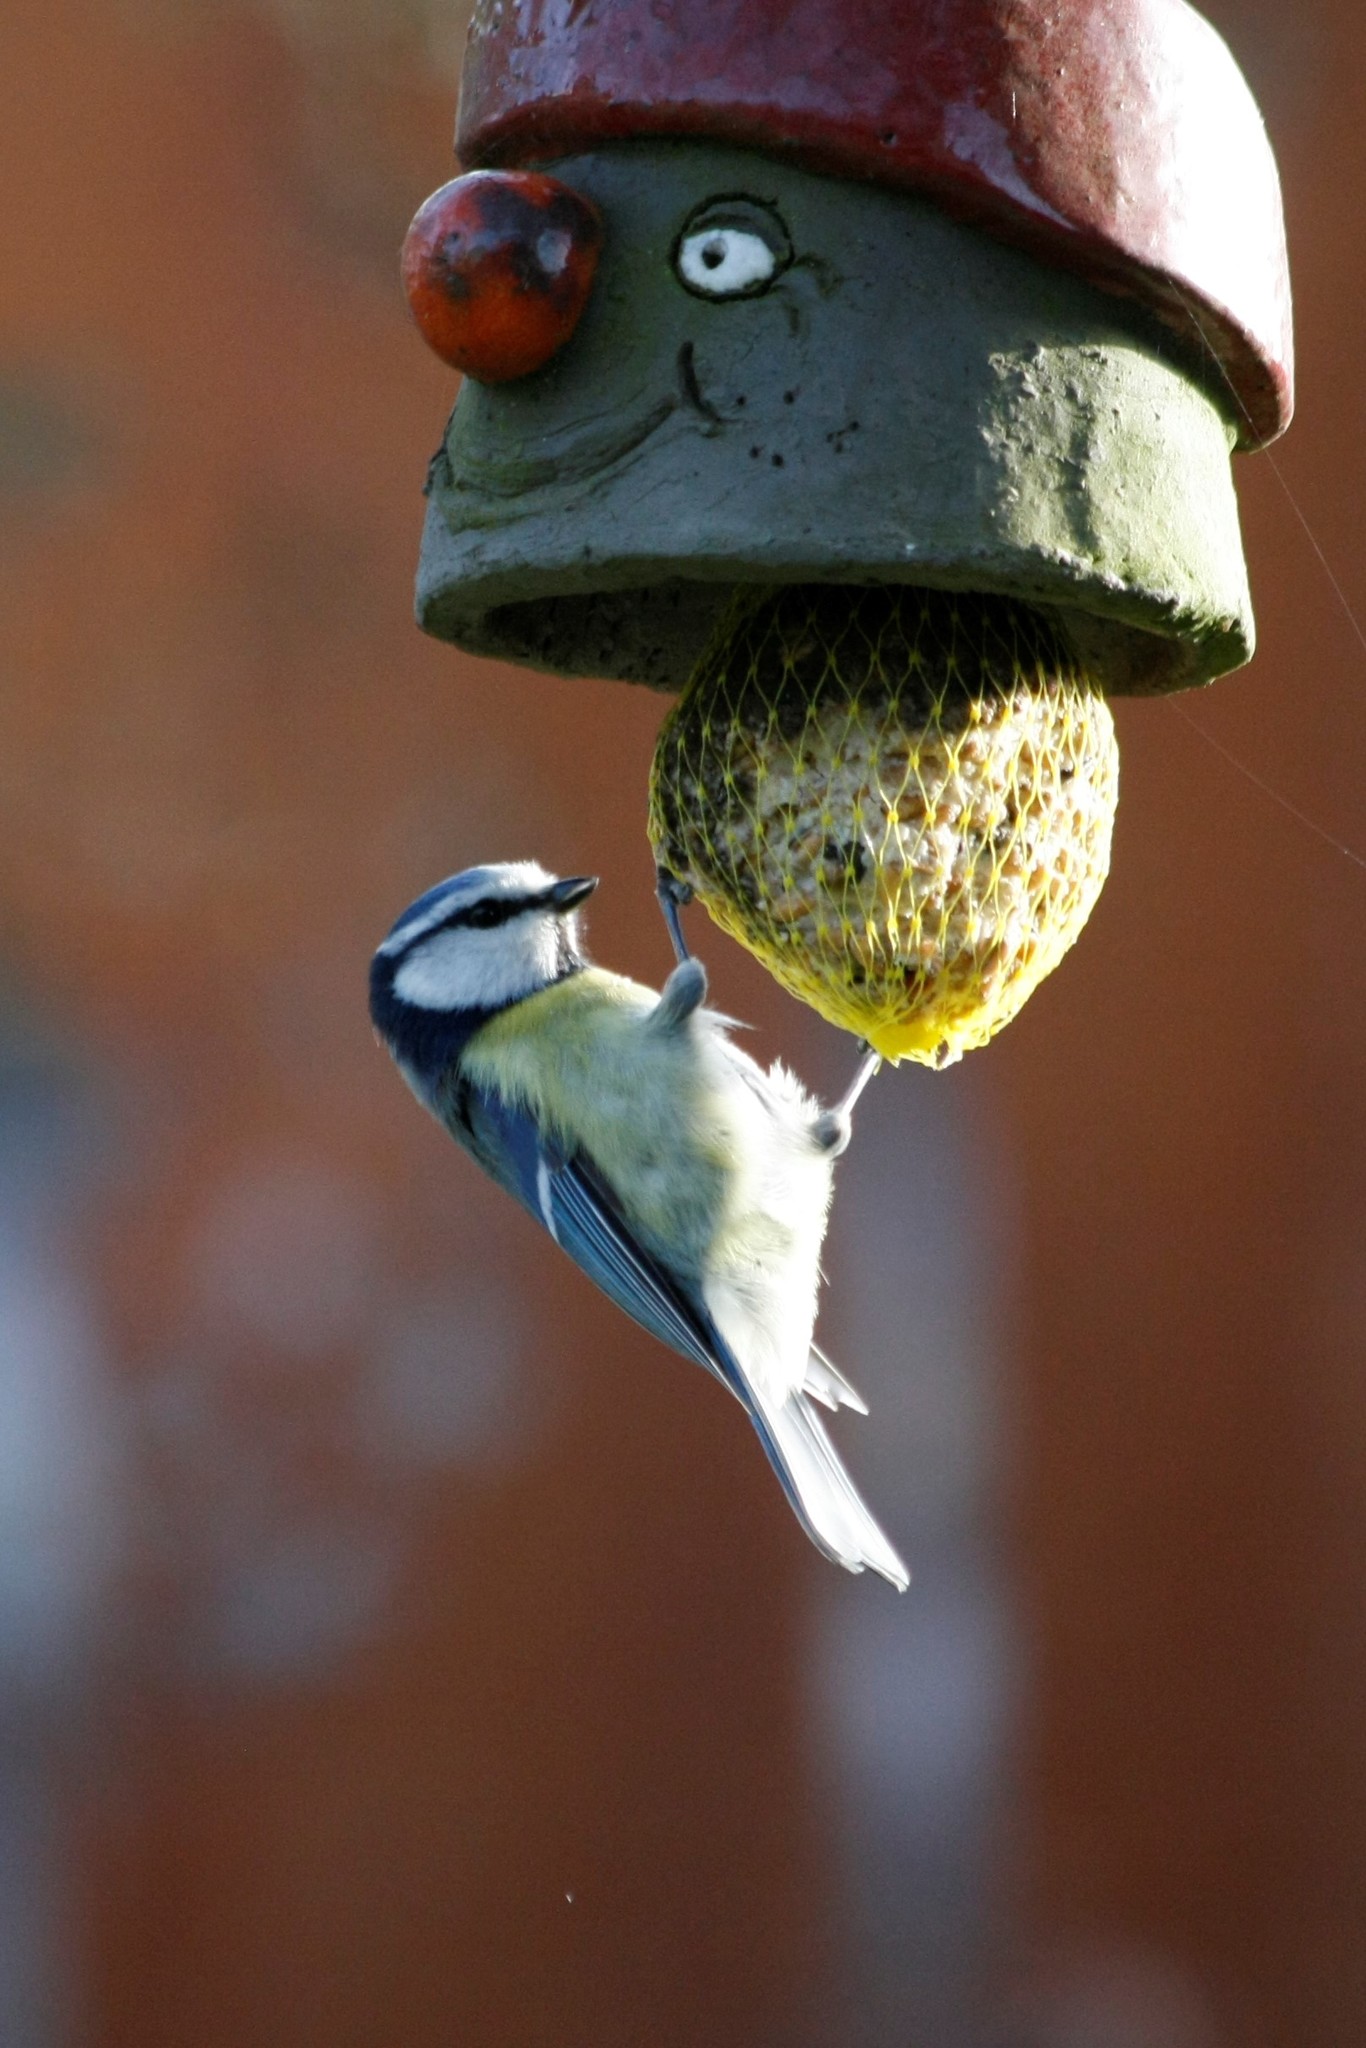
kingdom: Animalia
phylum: Chordata
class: Aves
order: Passeriformes
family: Paridae
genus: Cyanistes
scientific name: Cyanistes caeruleus
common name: Eurasian blue tit
